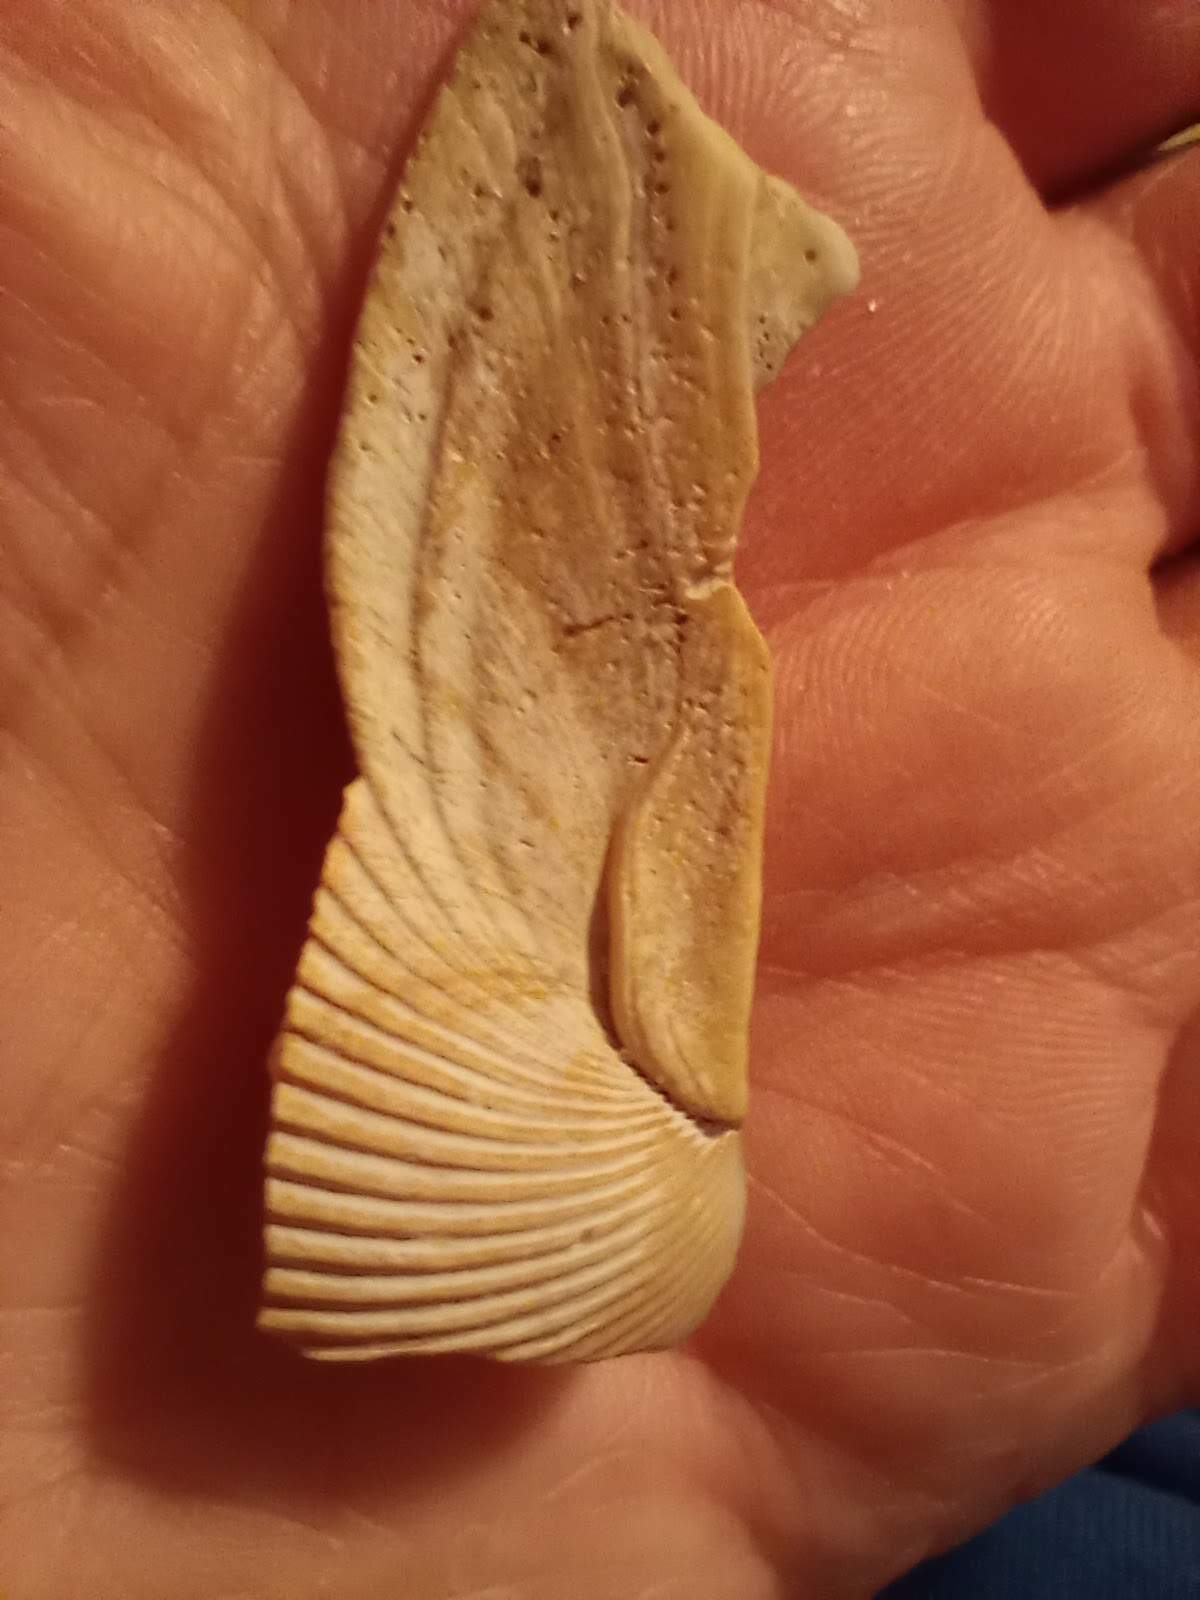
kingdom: Animalia
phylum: Mollusca
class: Bivalvia
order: Cardiida
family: Cardiidae
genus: Dinocardium
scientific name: Dinocardium robustum
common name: Atlantic giant cockle
